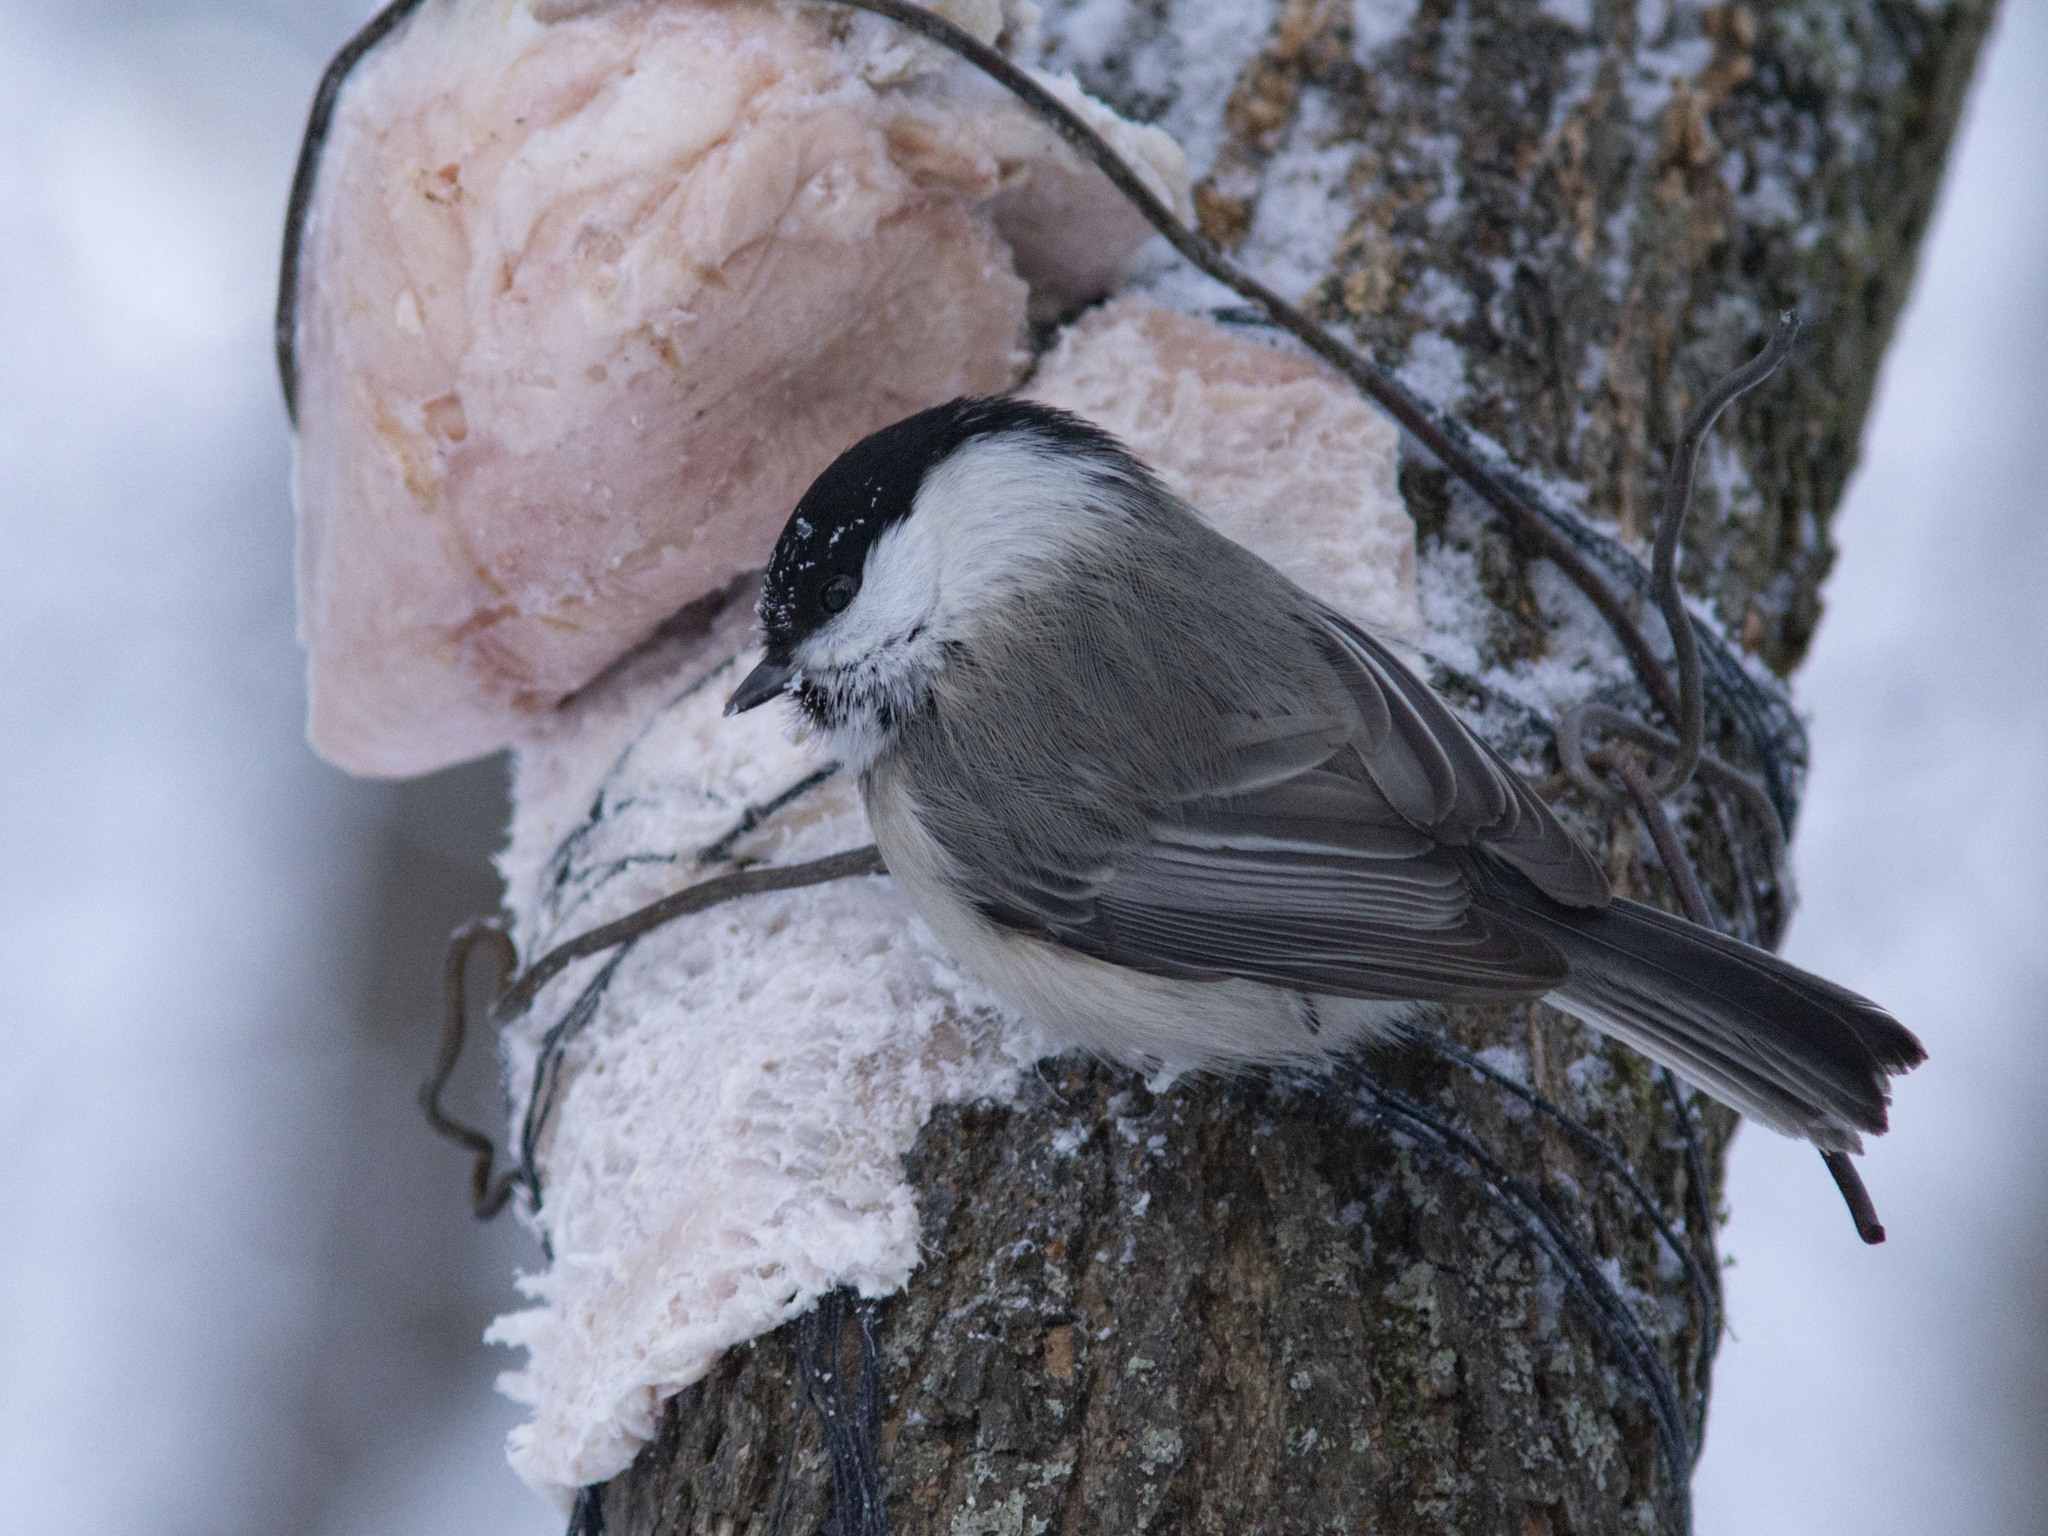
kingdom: Animalia
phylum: Chordata
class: Aves
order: Passeriformes
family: Paridae
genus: Poecile
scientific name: Poecile montanus
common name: Willow tit
